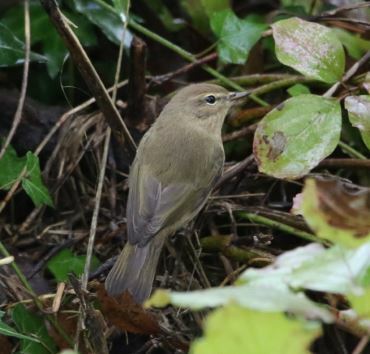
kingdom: Animalia
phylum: Chordata
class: Aves
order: Passeriformes
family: Phylloscopidae
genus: Phylloscopus
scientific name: Phylloscopus collybita
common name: Common chiffchaff
